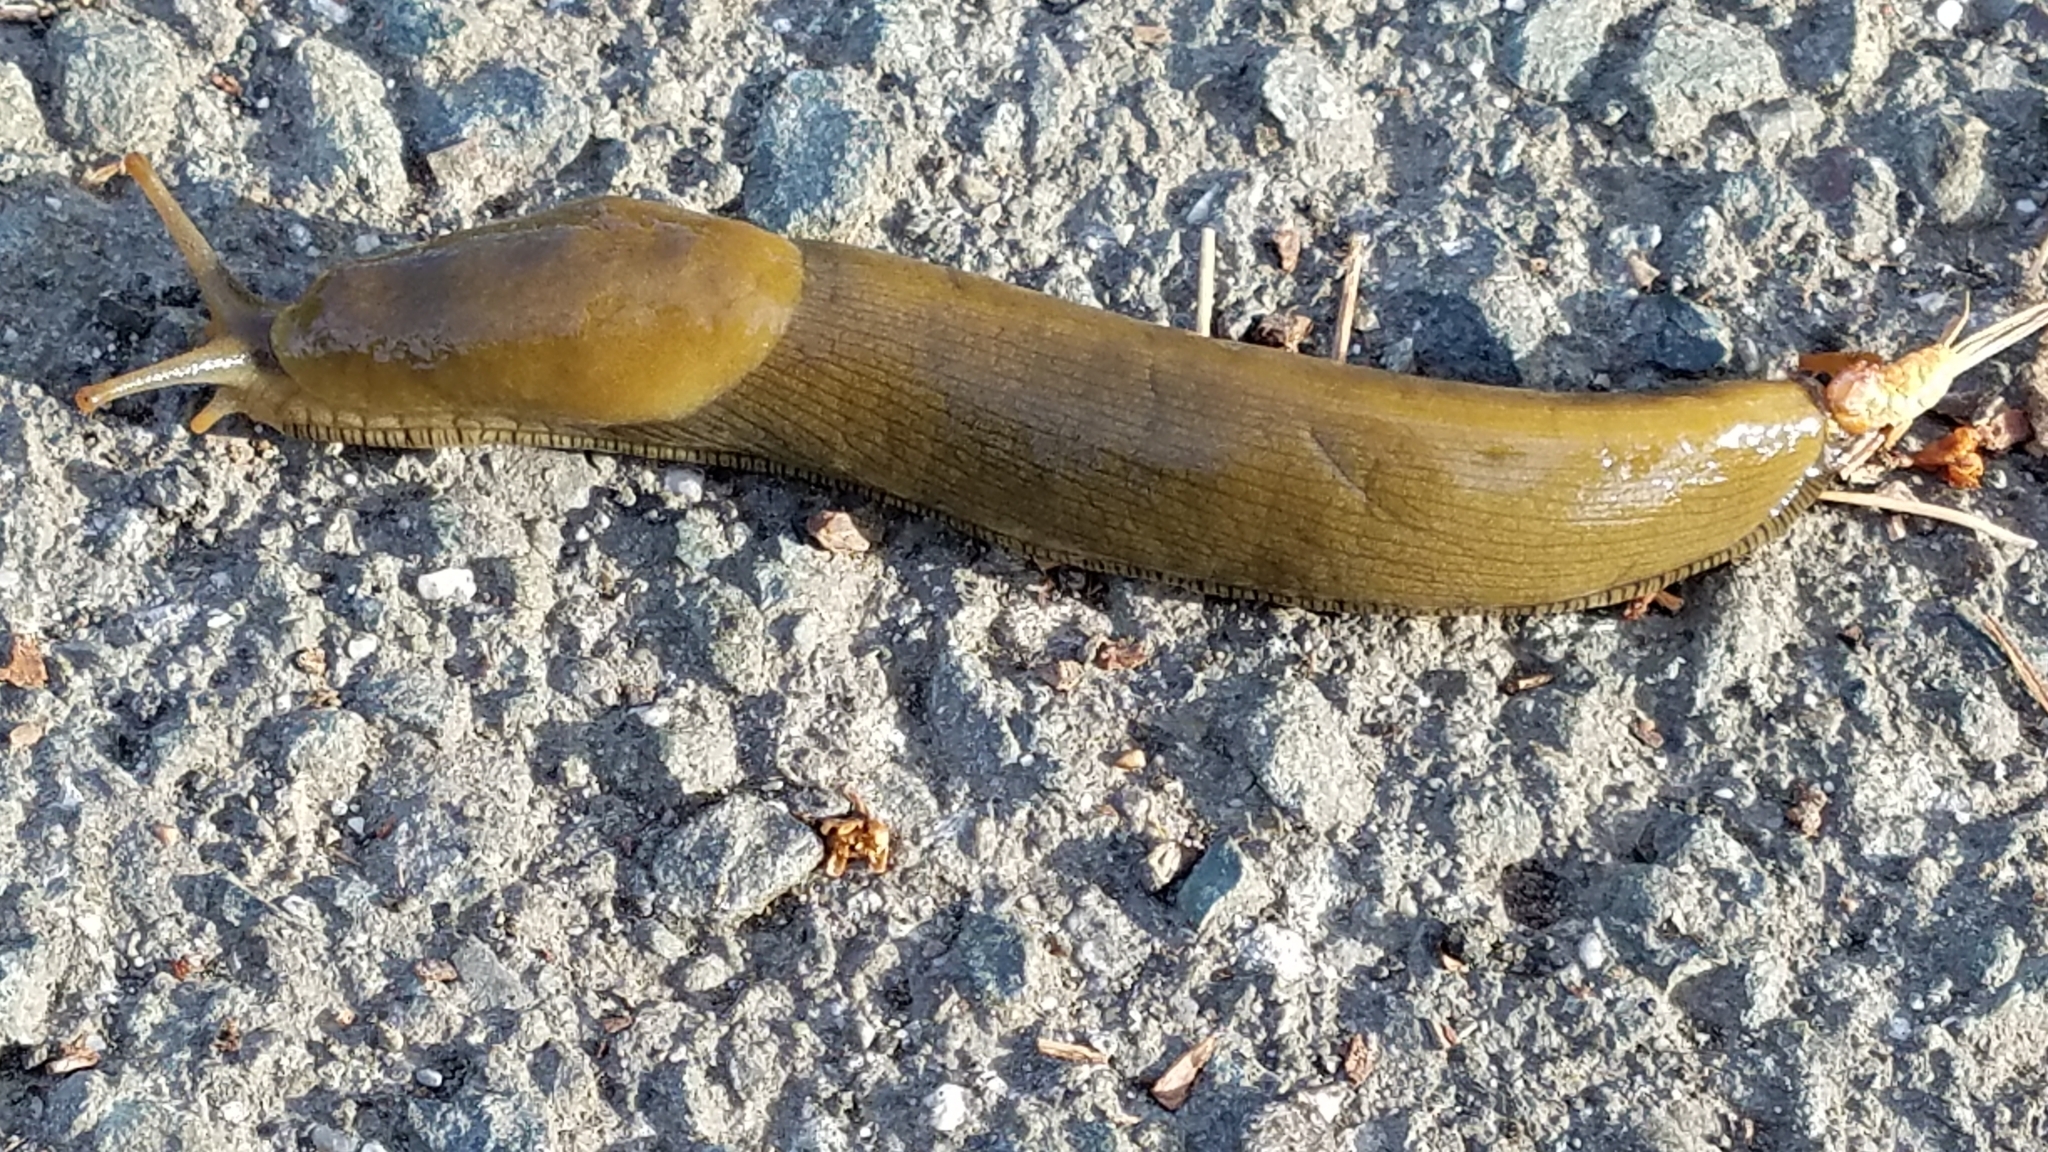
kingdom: Animalia
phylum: Mollusca
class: Gastropoda
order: Stylommatophora
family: Ariolimacidae
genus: Ariolimax
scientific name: Ariolimax buttoni
